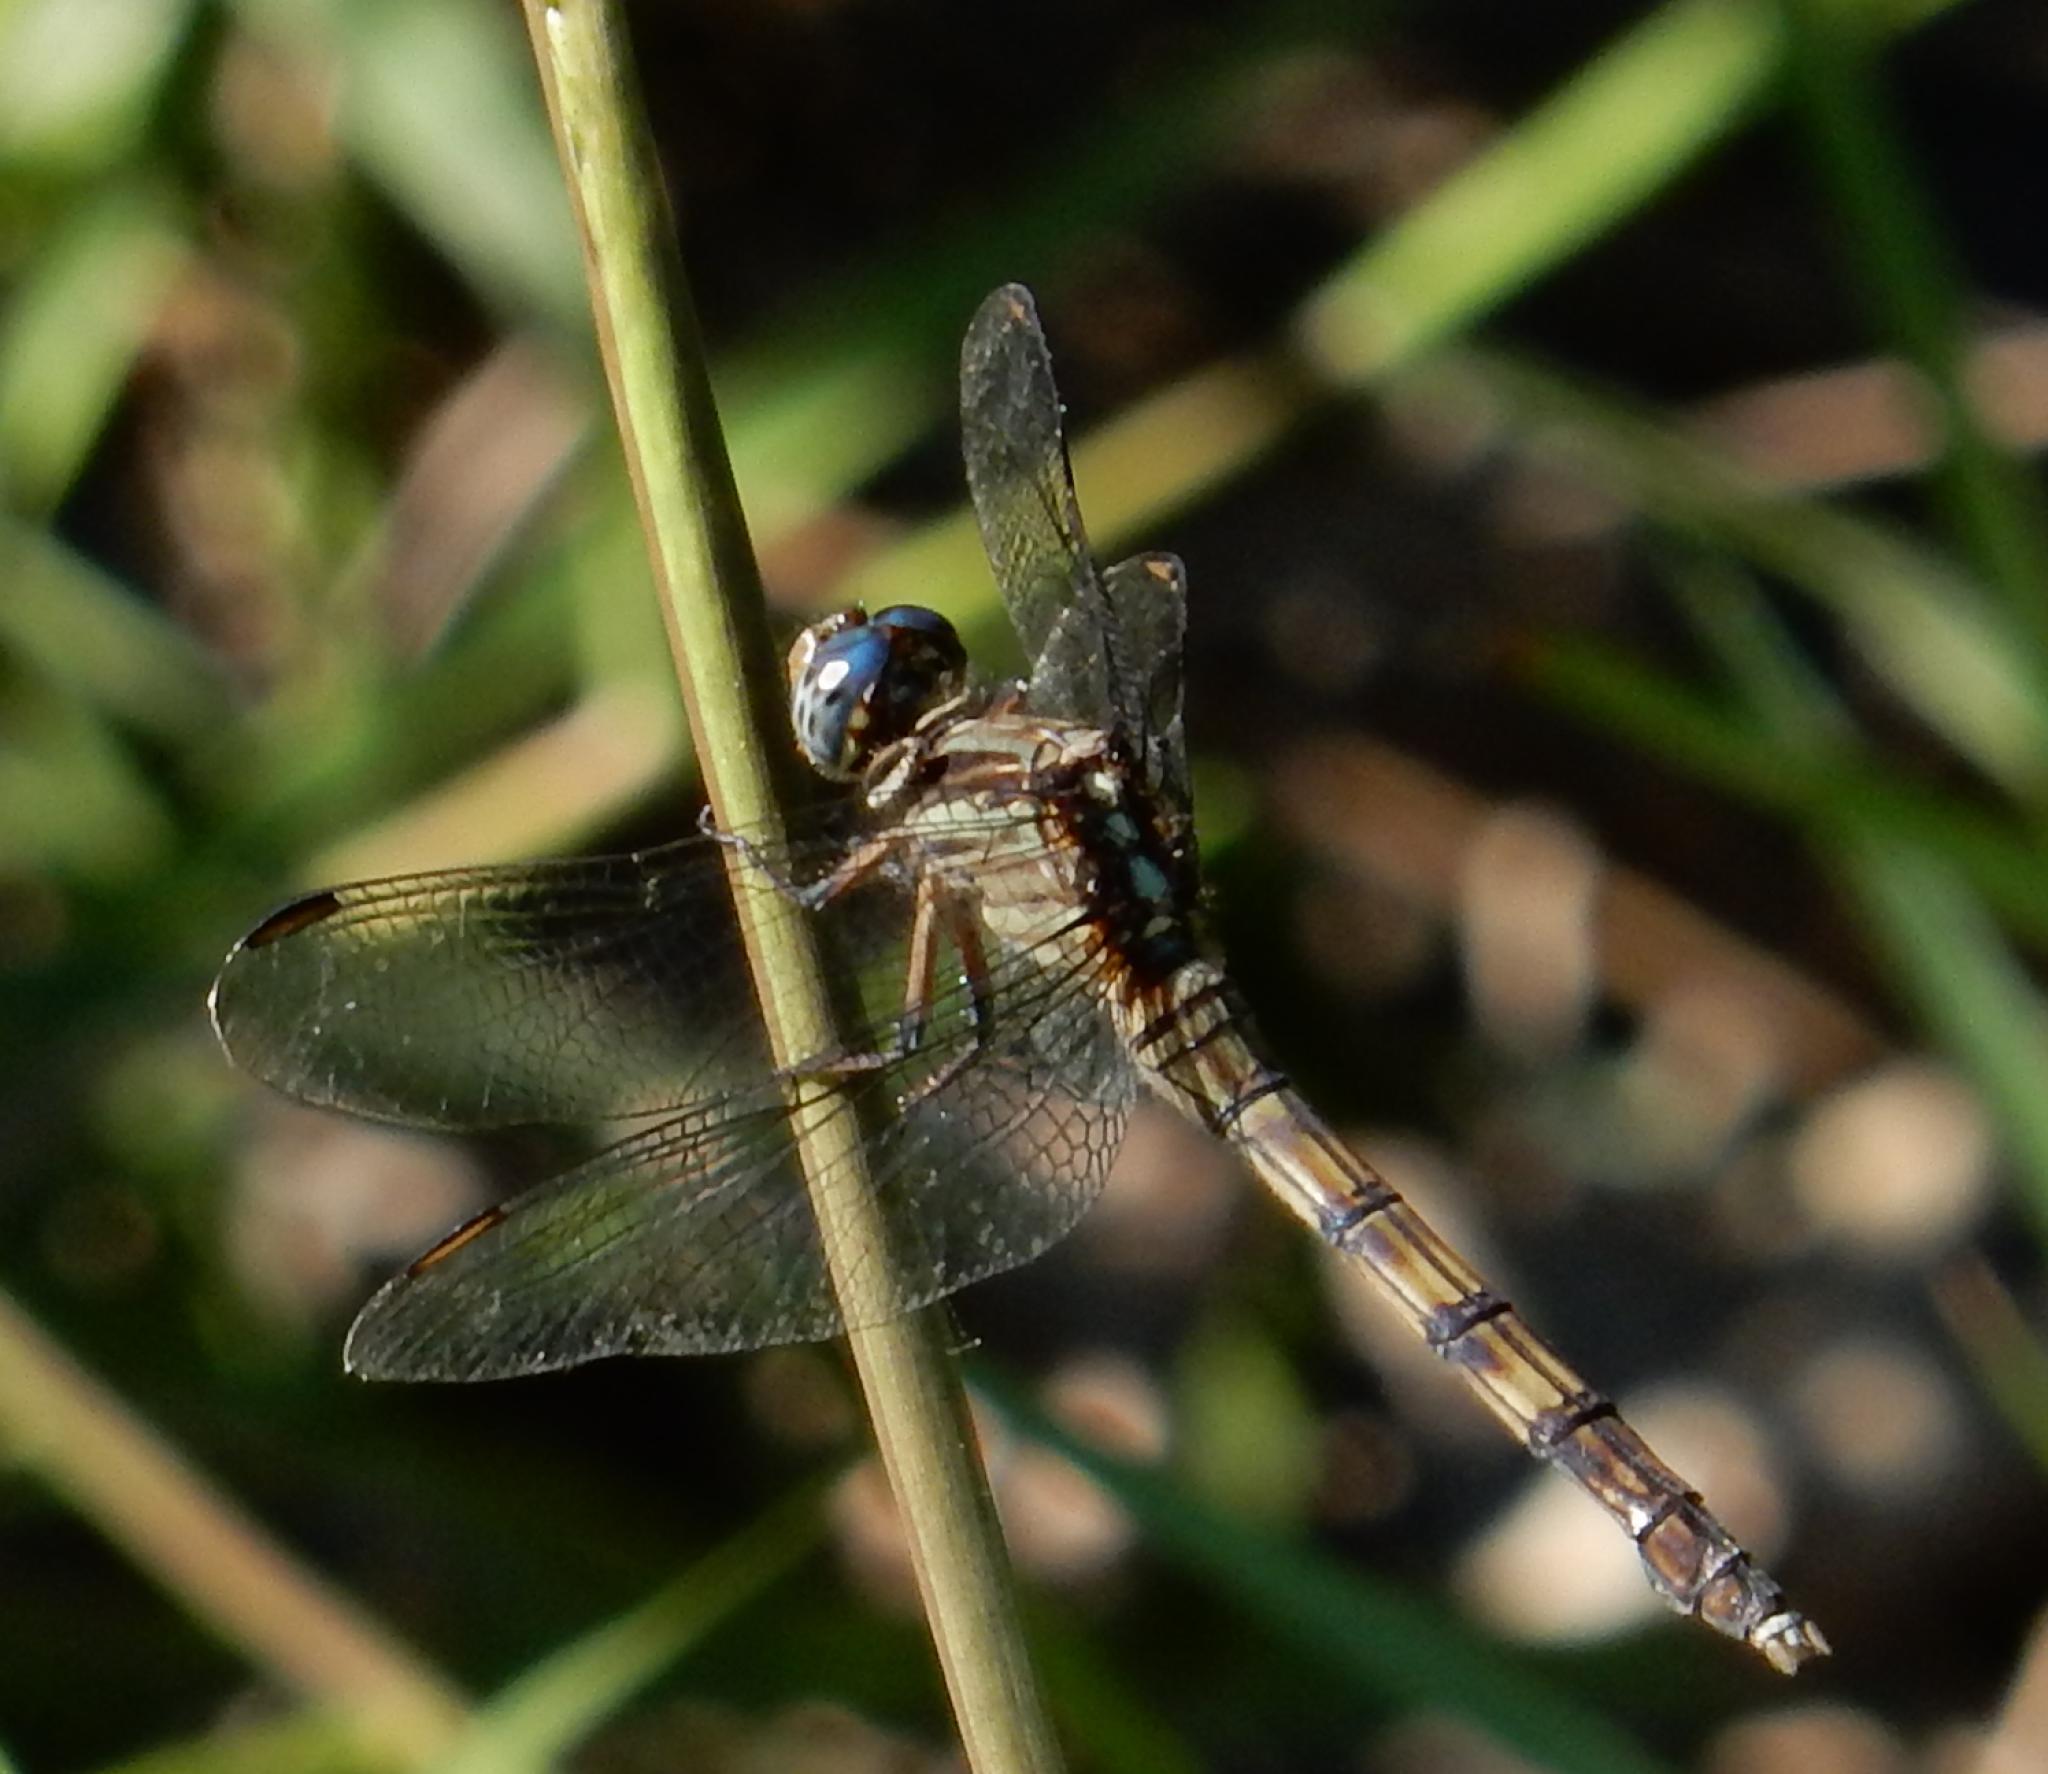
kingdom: Animalia
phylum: Arthropoda
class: Insecta
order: Odonata
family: Libellulidae
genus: Orthetrum
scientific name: Orthetrum julia
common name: Julia skimmer
